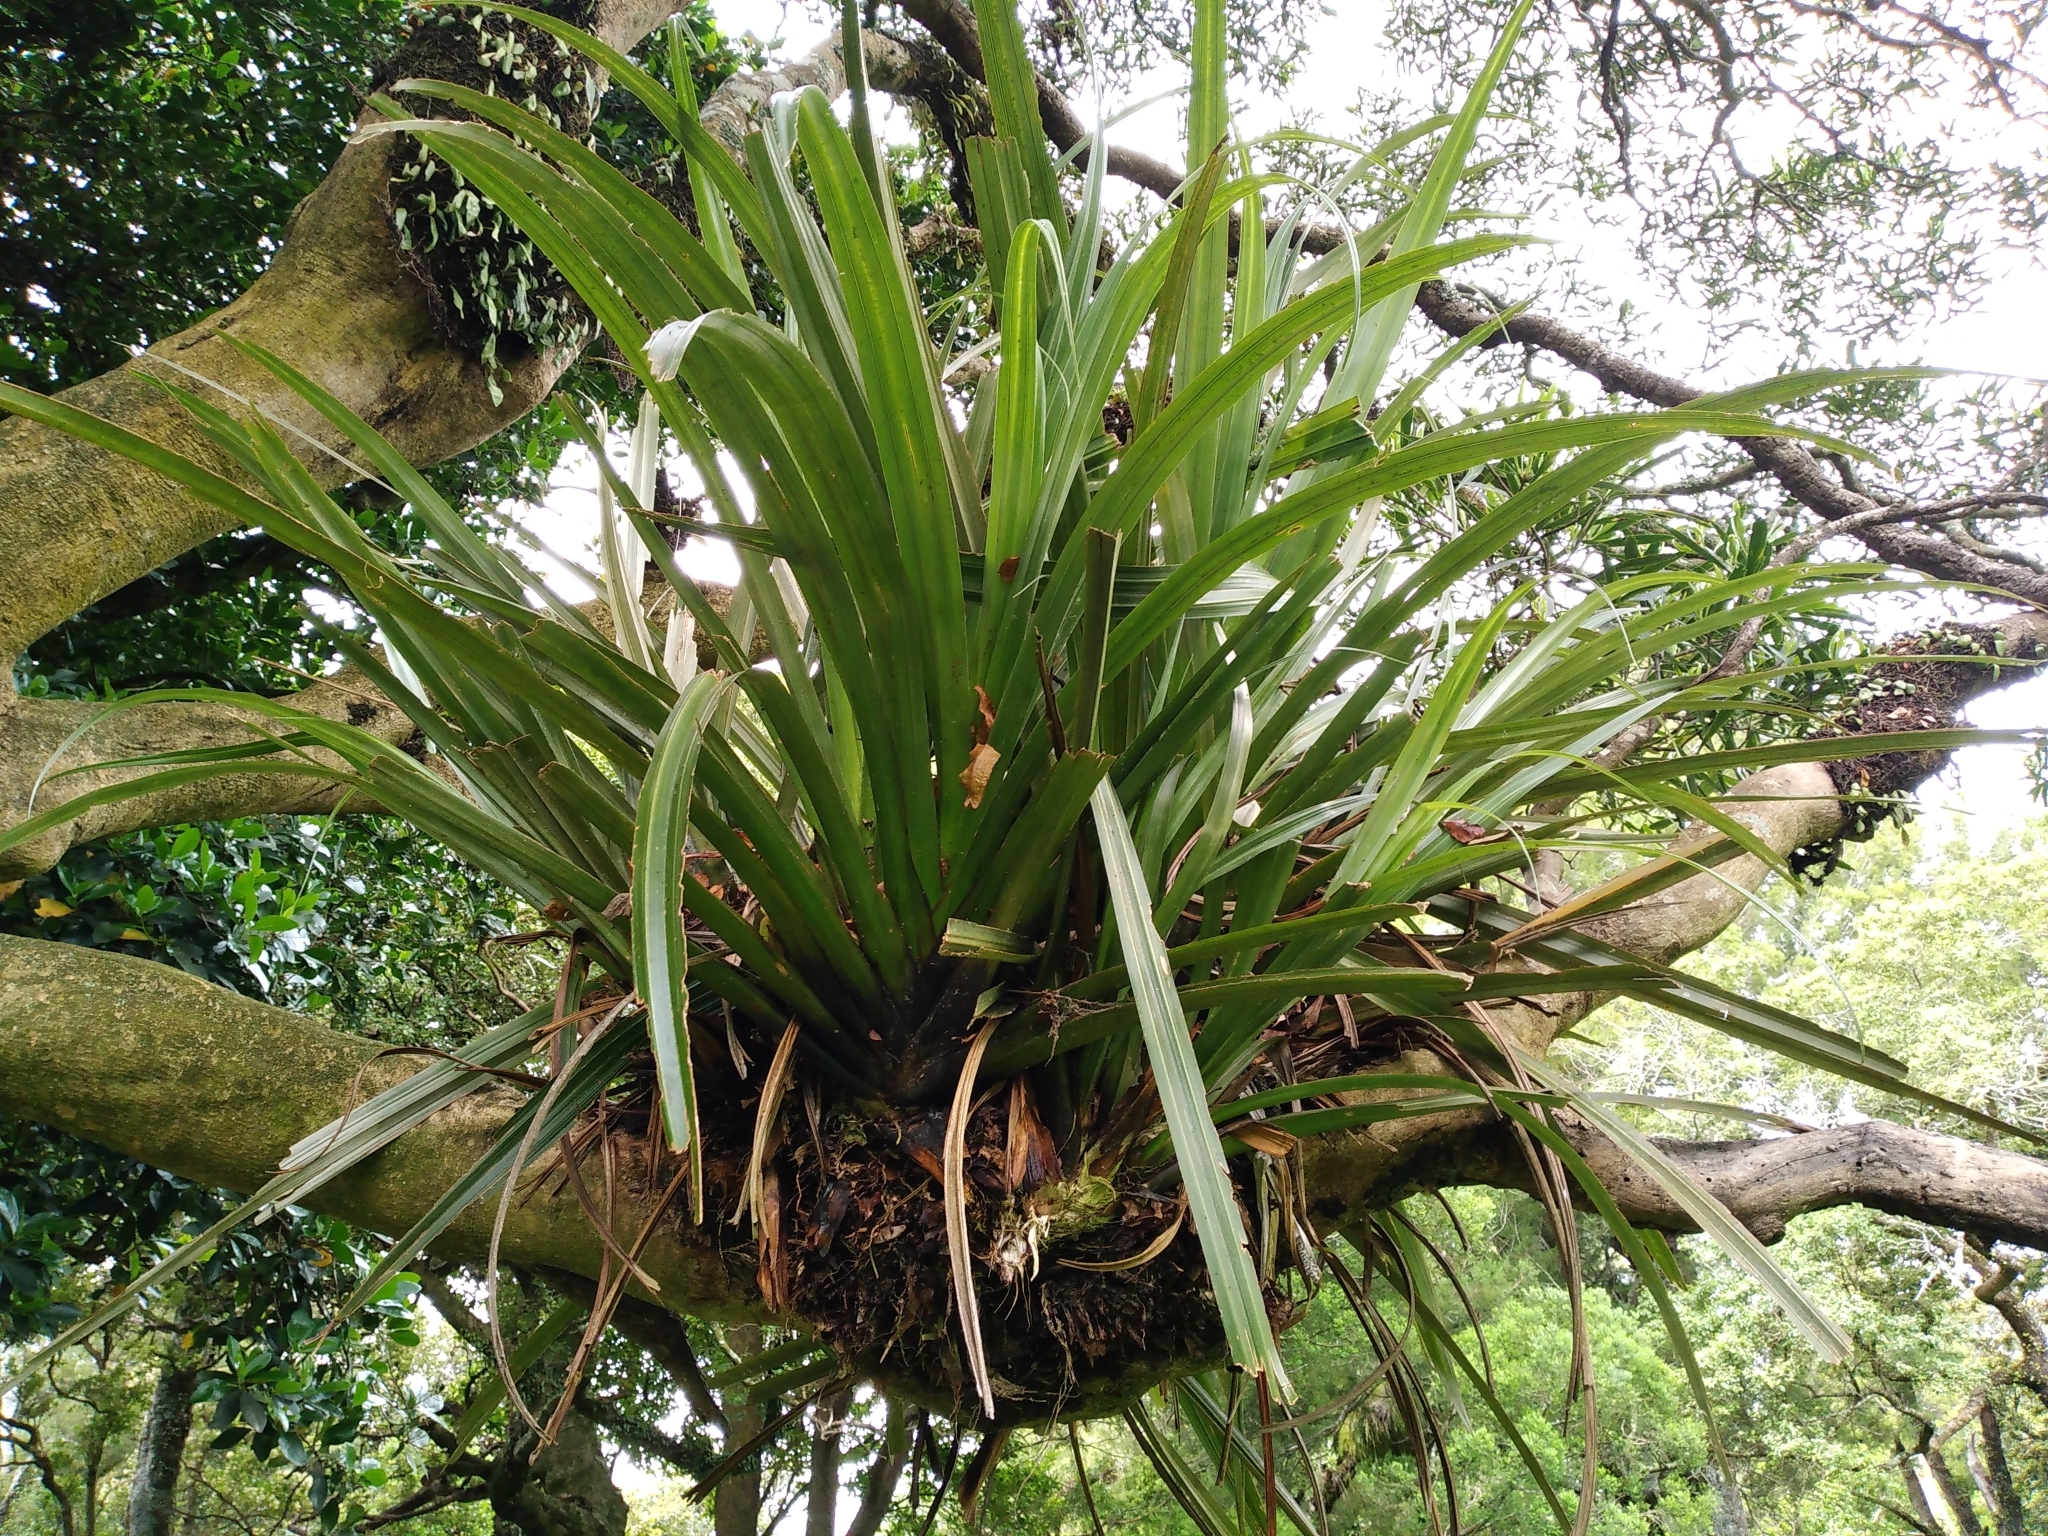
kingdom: Plantae
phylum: Tracheophyta
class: Liliopsida
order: Asparagales
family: Asteliaceae
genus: Astelia
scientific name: Astelia hastata
